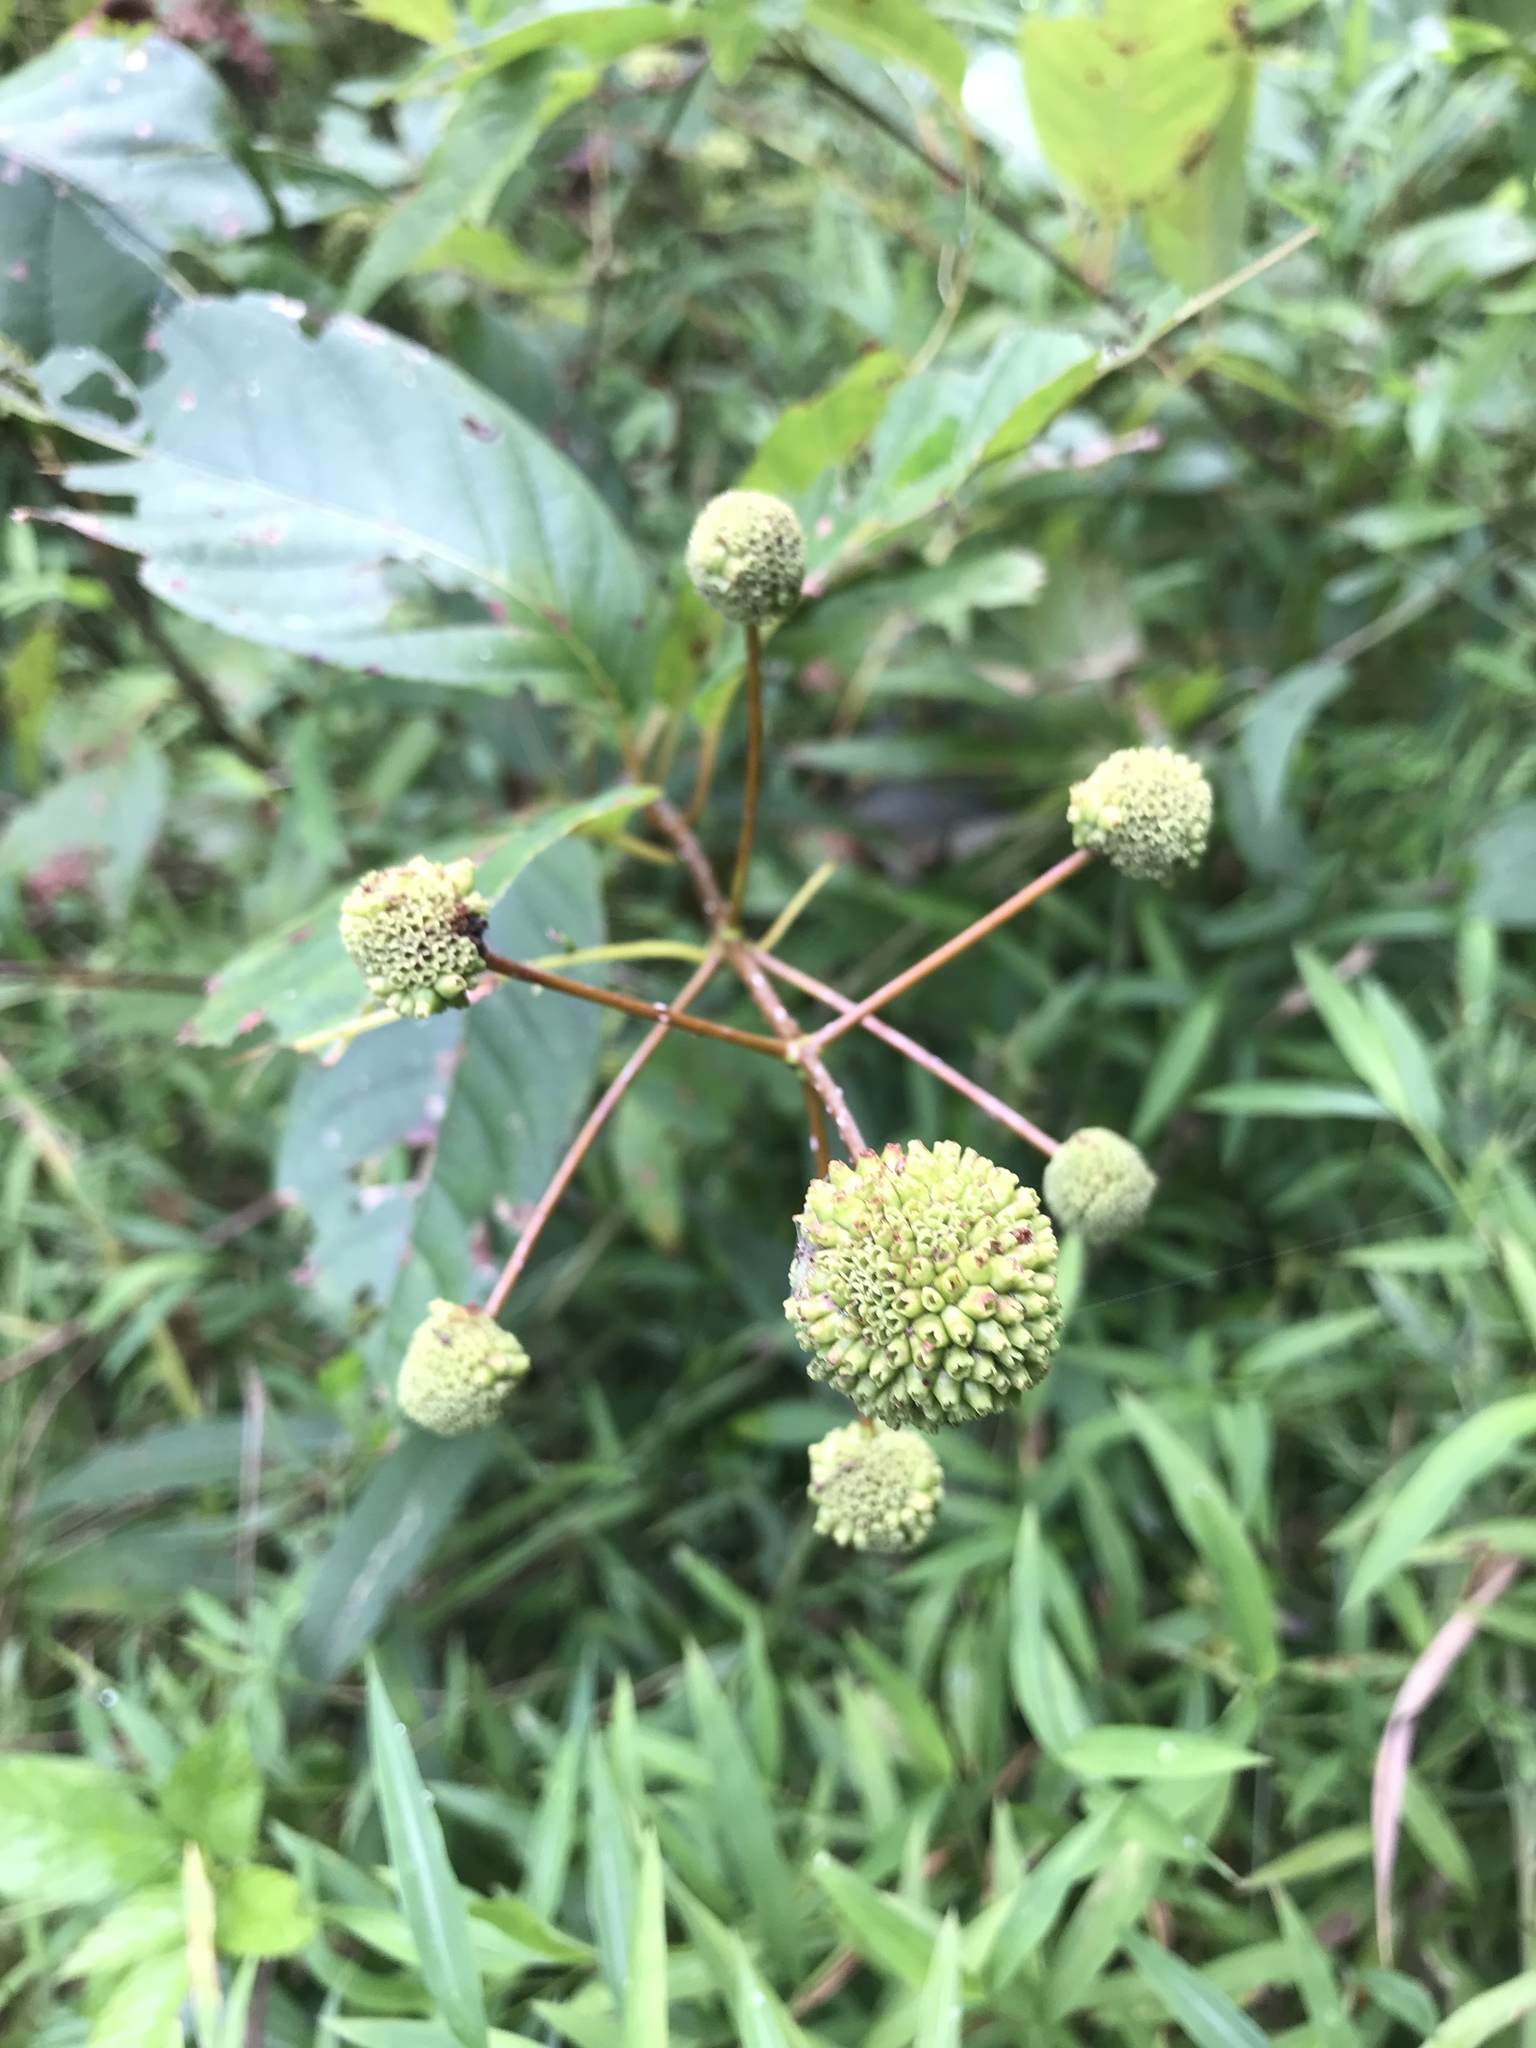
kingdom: Plantae
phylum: Tracheophyta
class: Magnoliopsida
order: Gentianales
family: Rubiaceae
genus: Cephalanthus
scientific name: Cephalanthus occidentalis
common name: Button-willow
